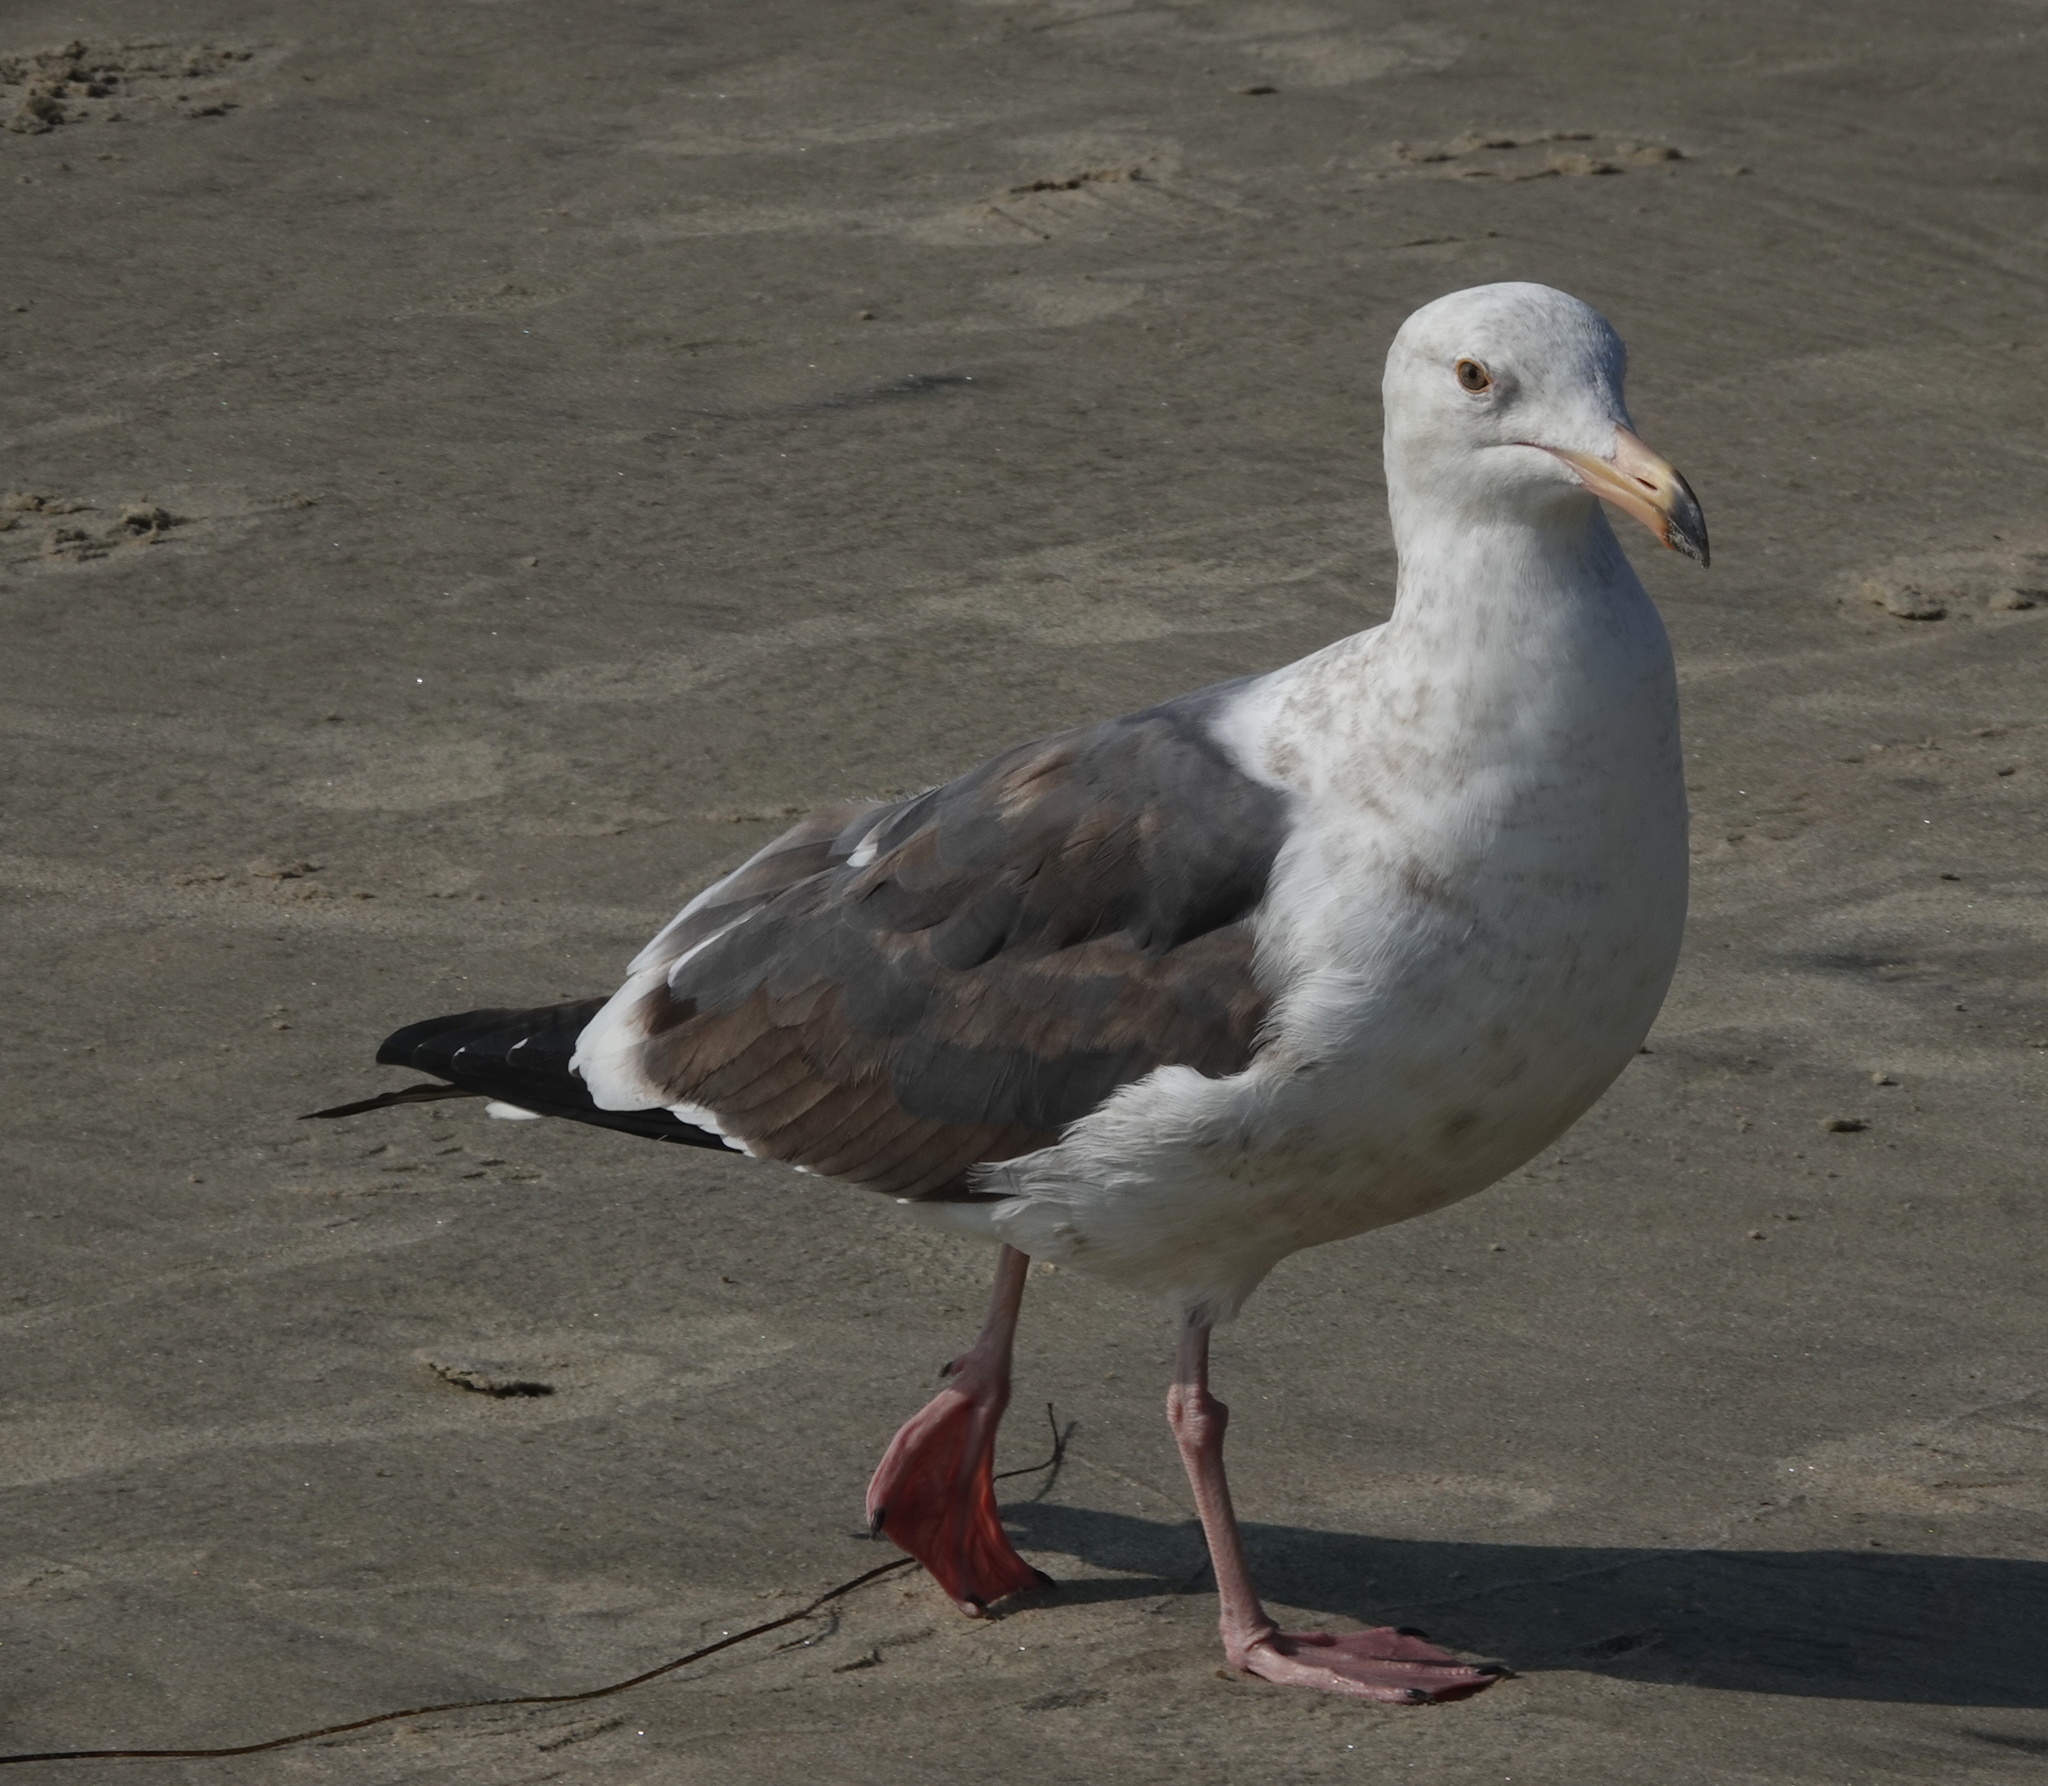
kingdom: Animalia
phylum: Chordata
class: Aves
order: Charadriiformes
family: Laridae
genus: Larus
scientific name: Larus occidentalis
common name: Western gull
